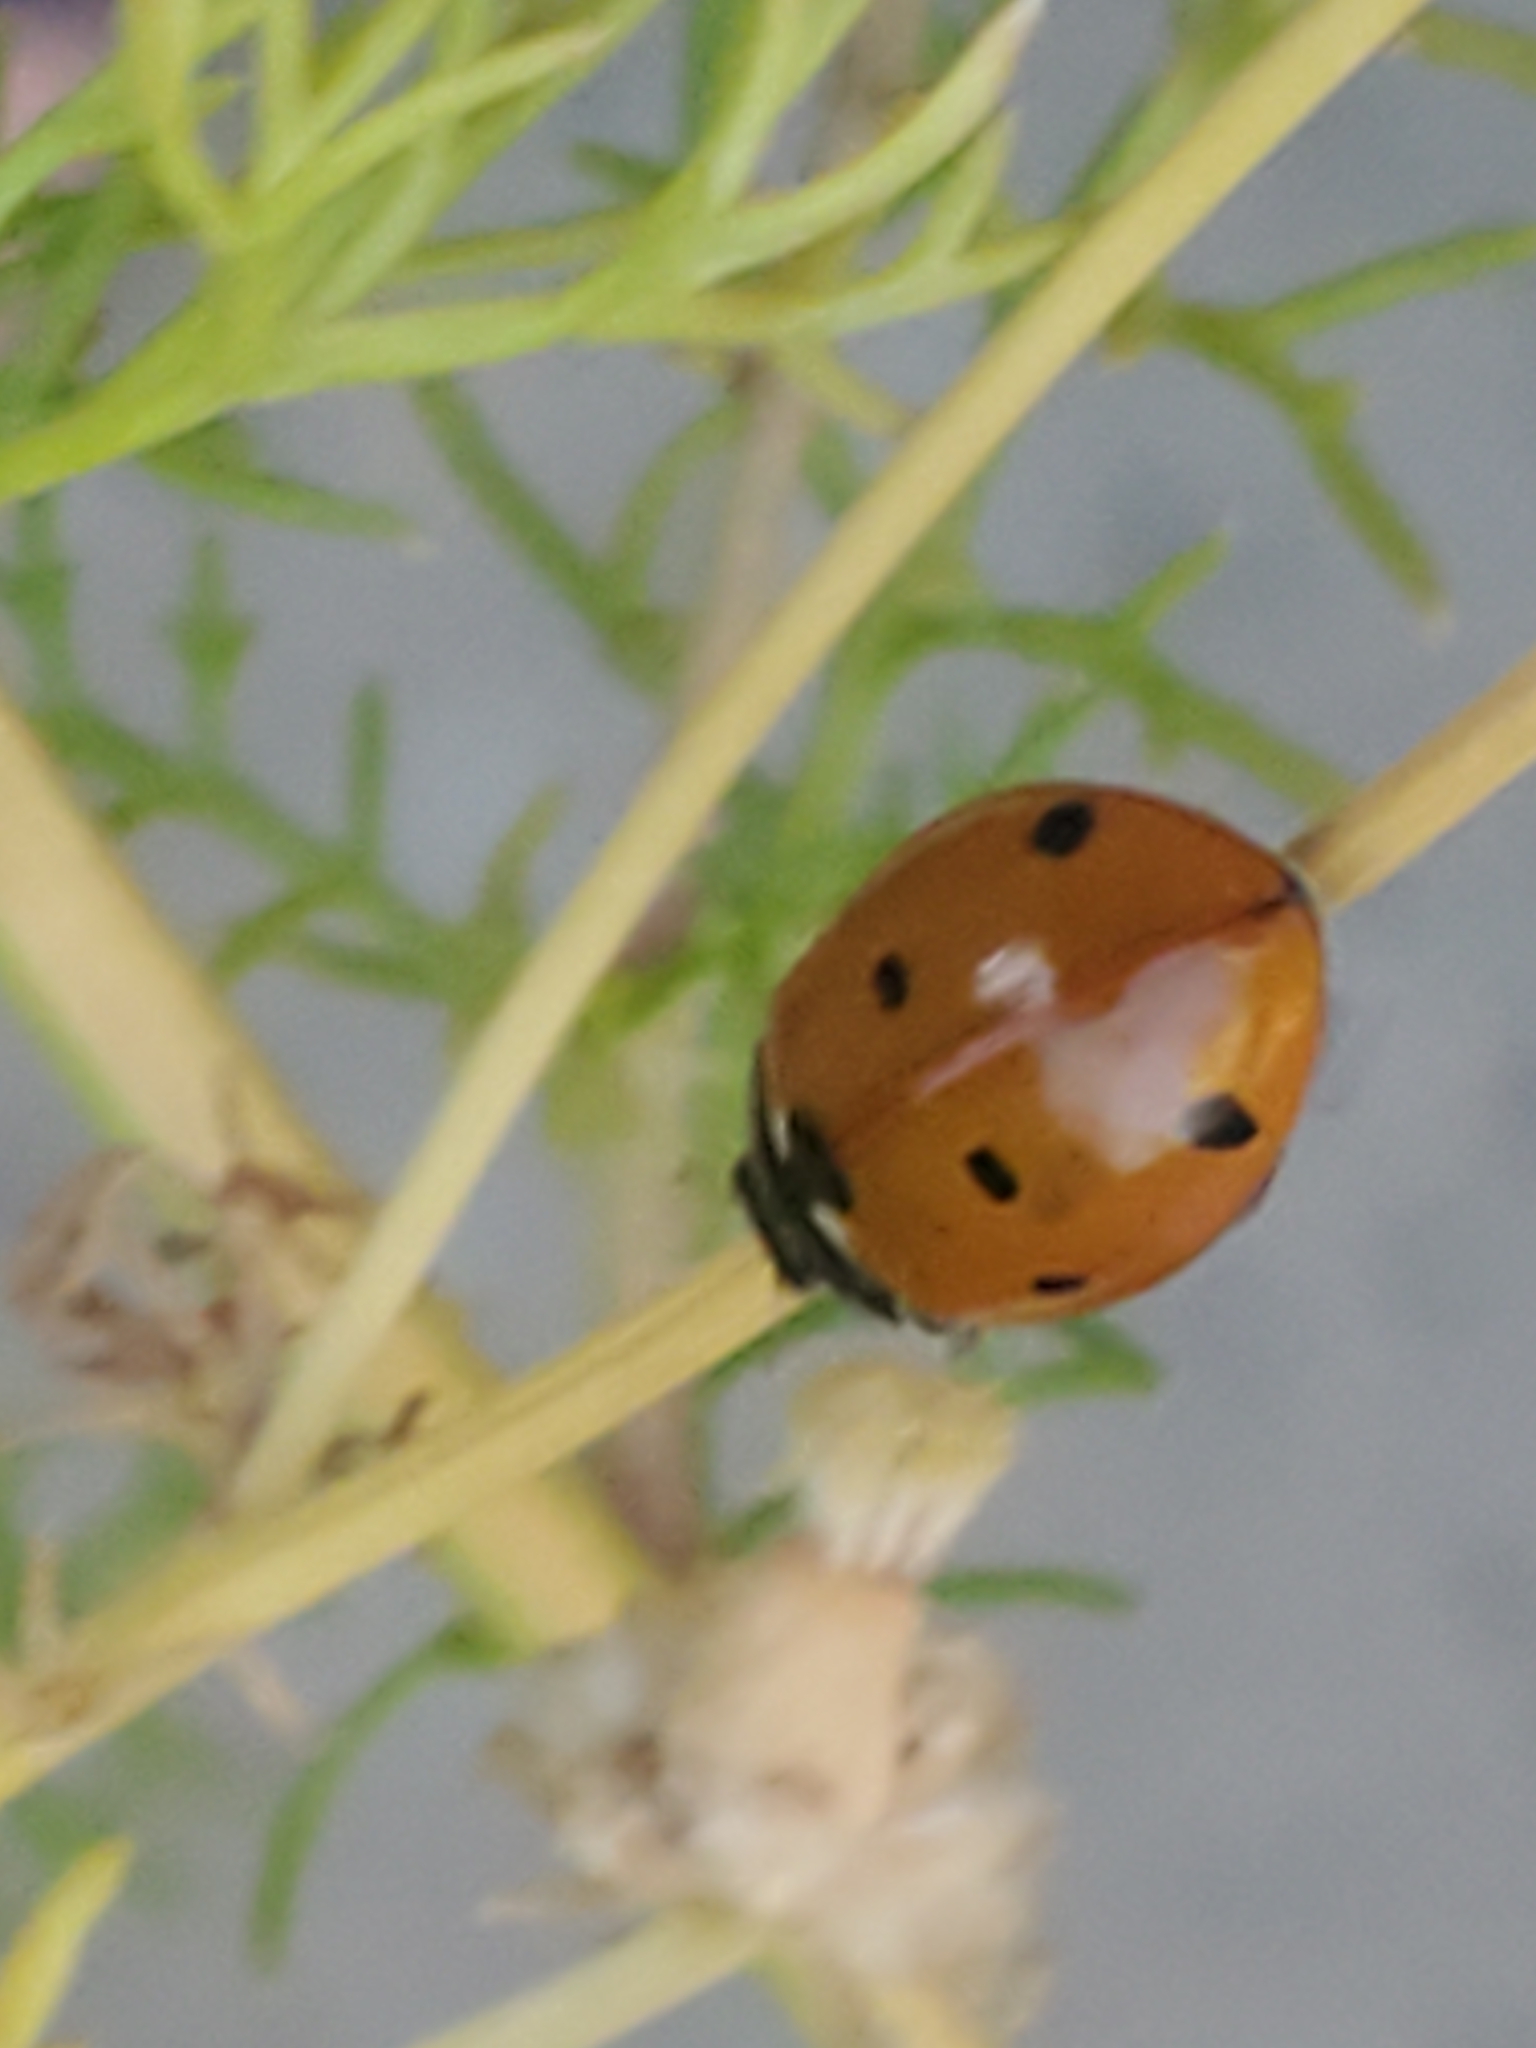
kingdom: Animalia
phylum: Arthropoda
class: Insecta
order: Coleoptera
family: Coccinellidae
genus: Coccinella
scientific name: Coccinella septempunctata
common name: Sevenspotted lady beetle
